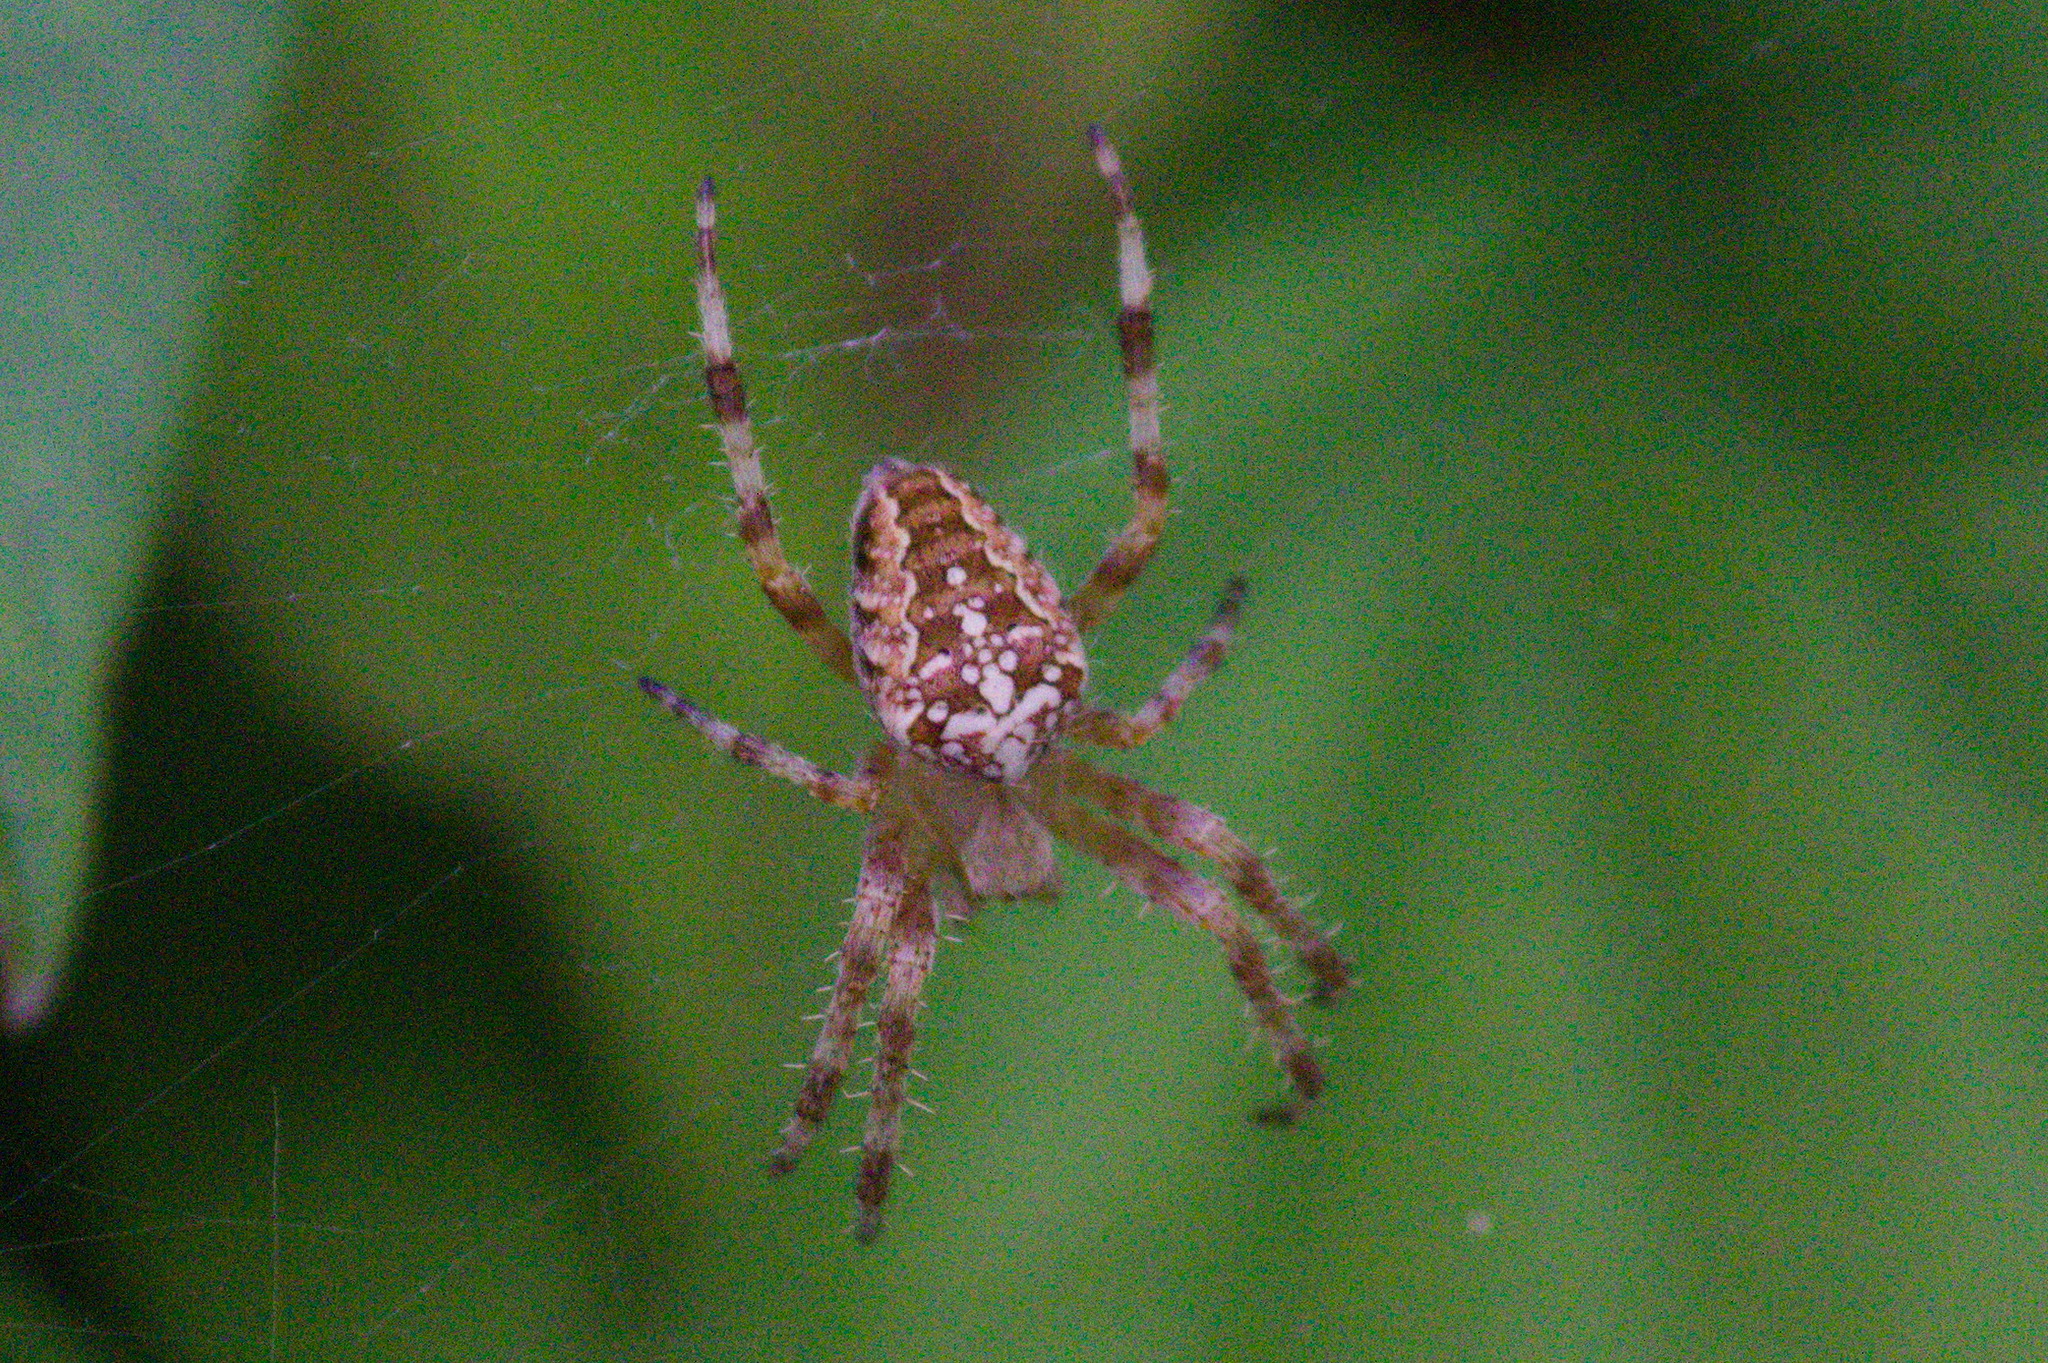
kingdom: Animalia
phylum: Arthropoda
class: Arachnida
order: Araneae
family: Araneidae
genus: Araneus
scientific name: Araneus diadematus
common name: Cross orbweaver
